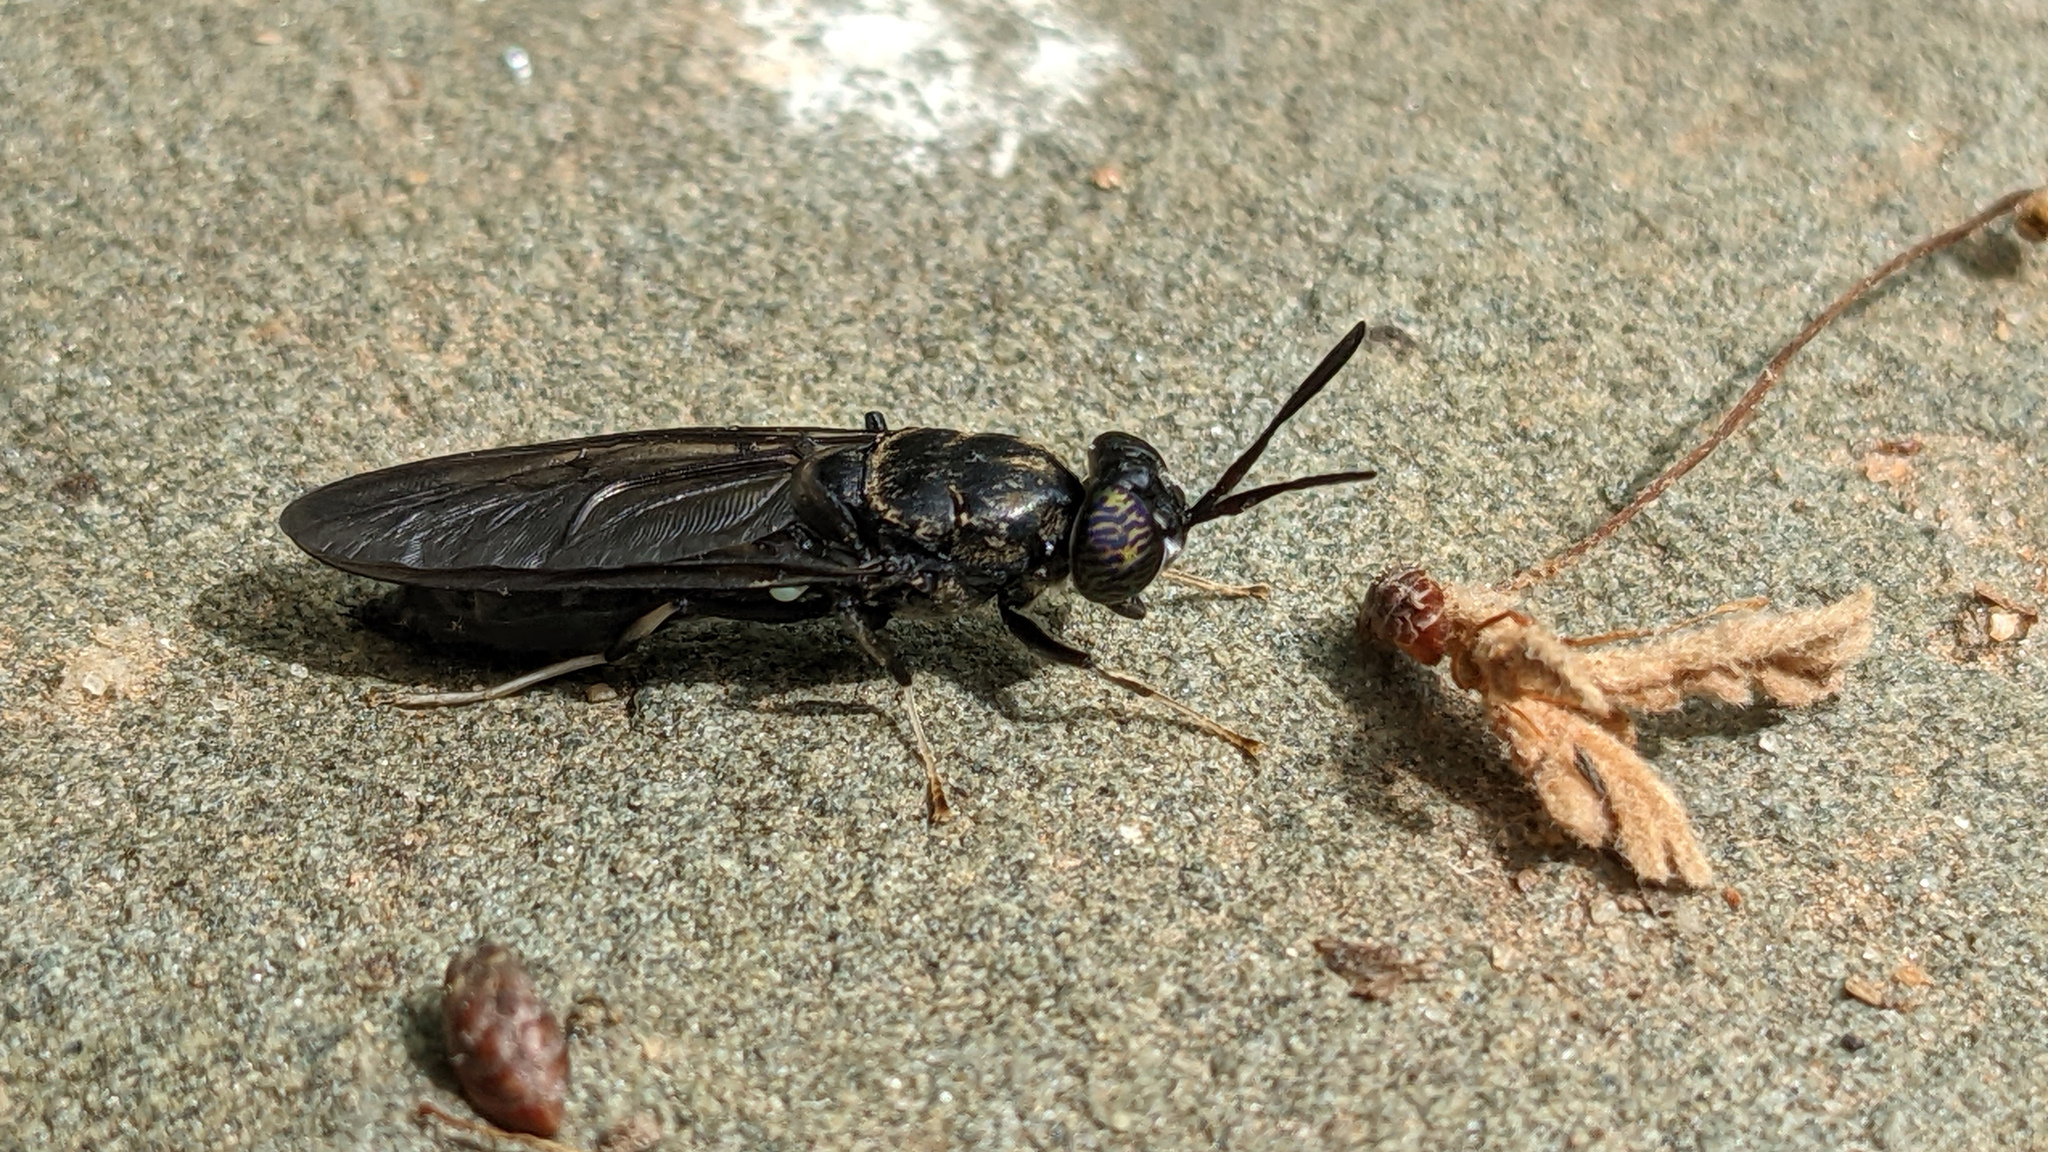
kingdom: Animalia
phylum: Arthropoda
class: Insecta
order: Diptera
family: Stratiomyidae
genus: Hermetia
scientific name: Hermetia illucens
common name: Black soldier fly
